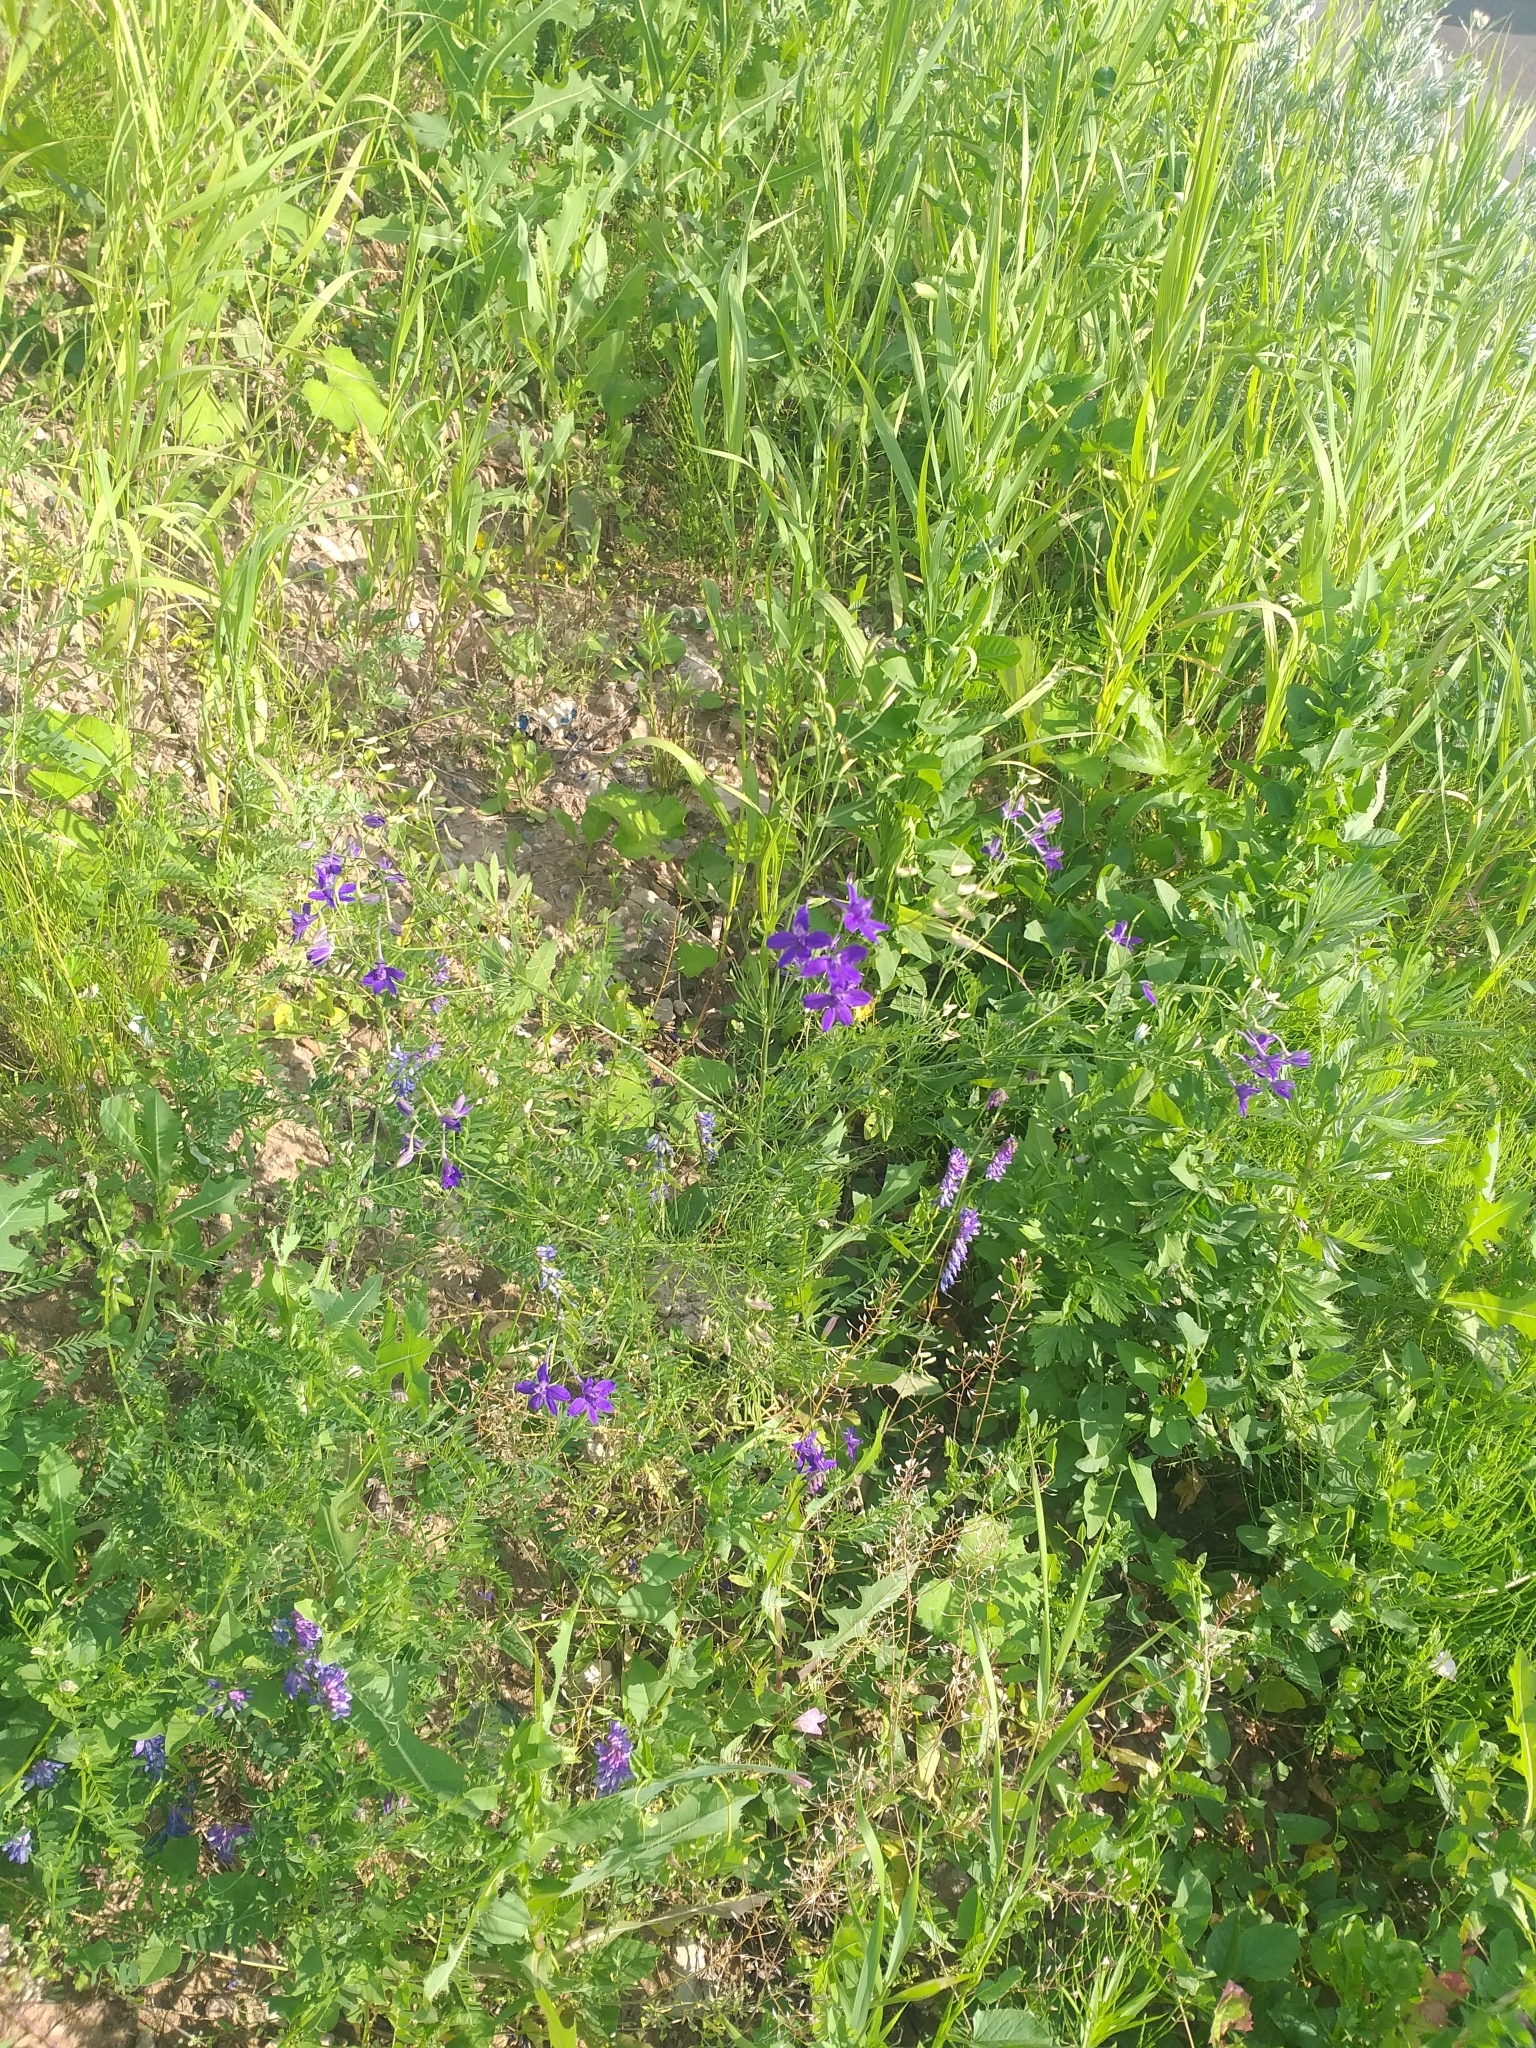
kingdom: Plantae
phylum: Tracheophyta
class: Magnoliopsida
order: Ranunculales
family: Ranunculaceae
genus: Delphinium
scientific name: Delphinium consolida
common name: Branching larkspur
